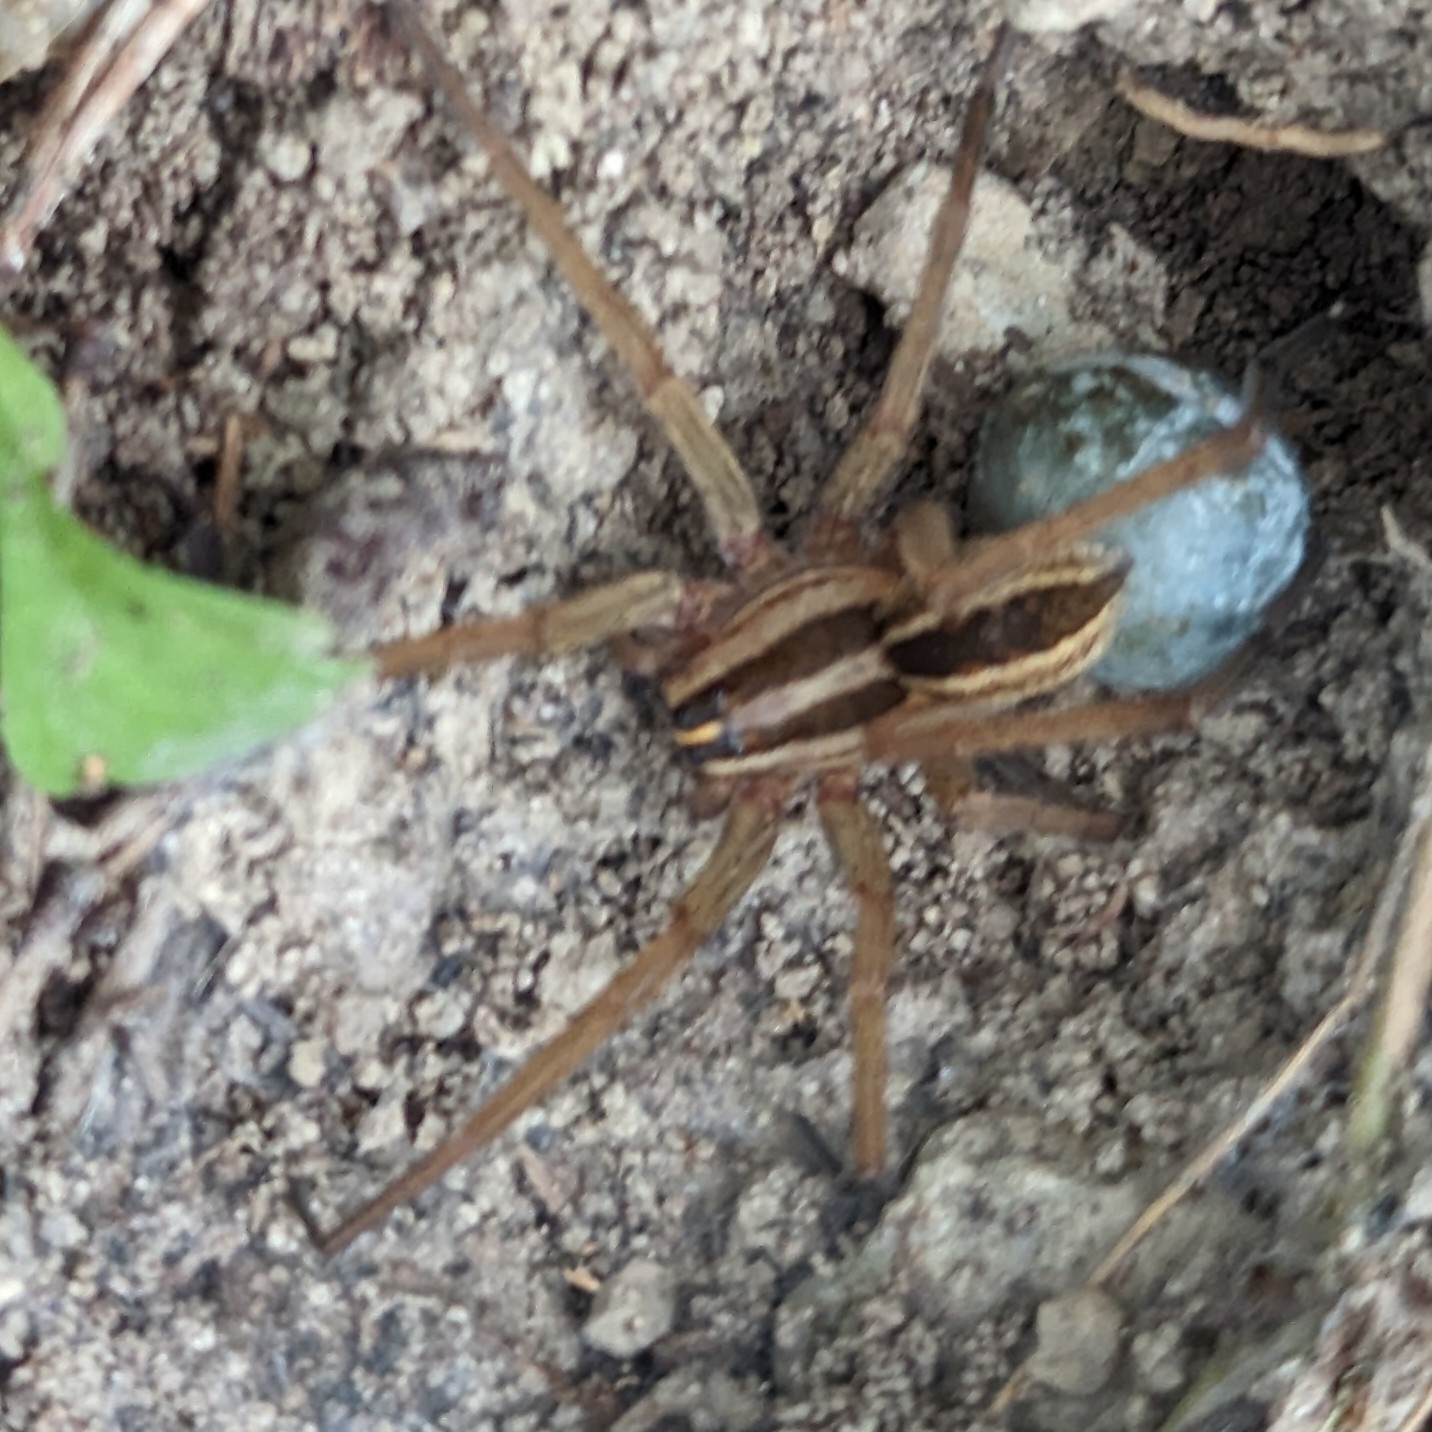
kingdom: Animalia
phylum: Arthropoda
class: Arachnida
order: Araneae
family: Lycosidae
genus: Rabidosa
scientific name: Rabidosa rabida
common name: Rabid wolf spider
